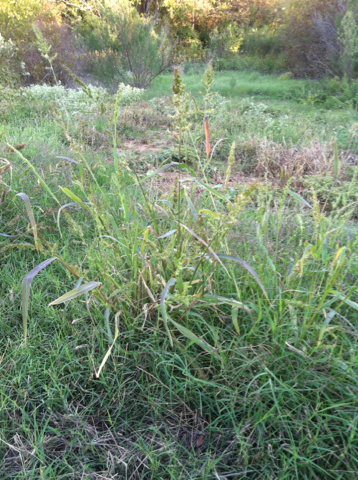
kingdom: Plantae
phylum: Tracheophyta
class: Liliopsida
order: Poales
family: Poaceae
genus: Echinochloa
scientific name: Echinochloa crus-galli
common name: Cockspur
